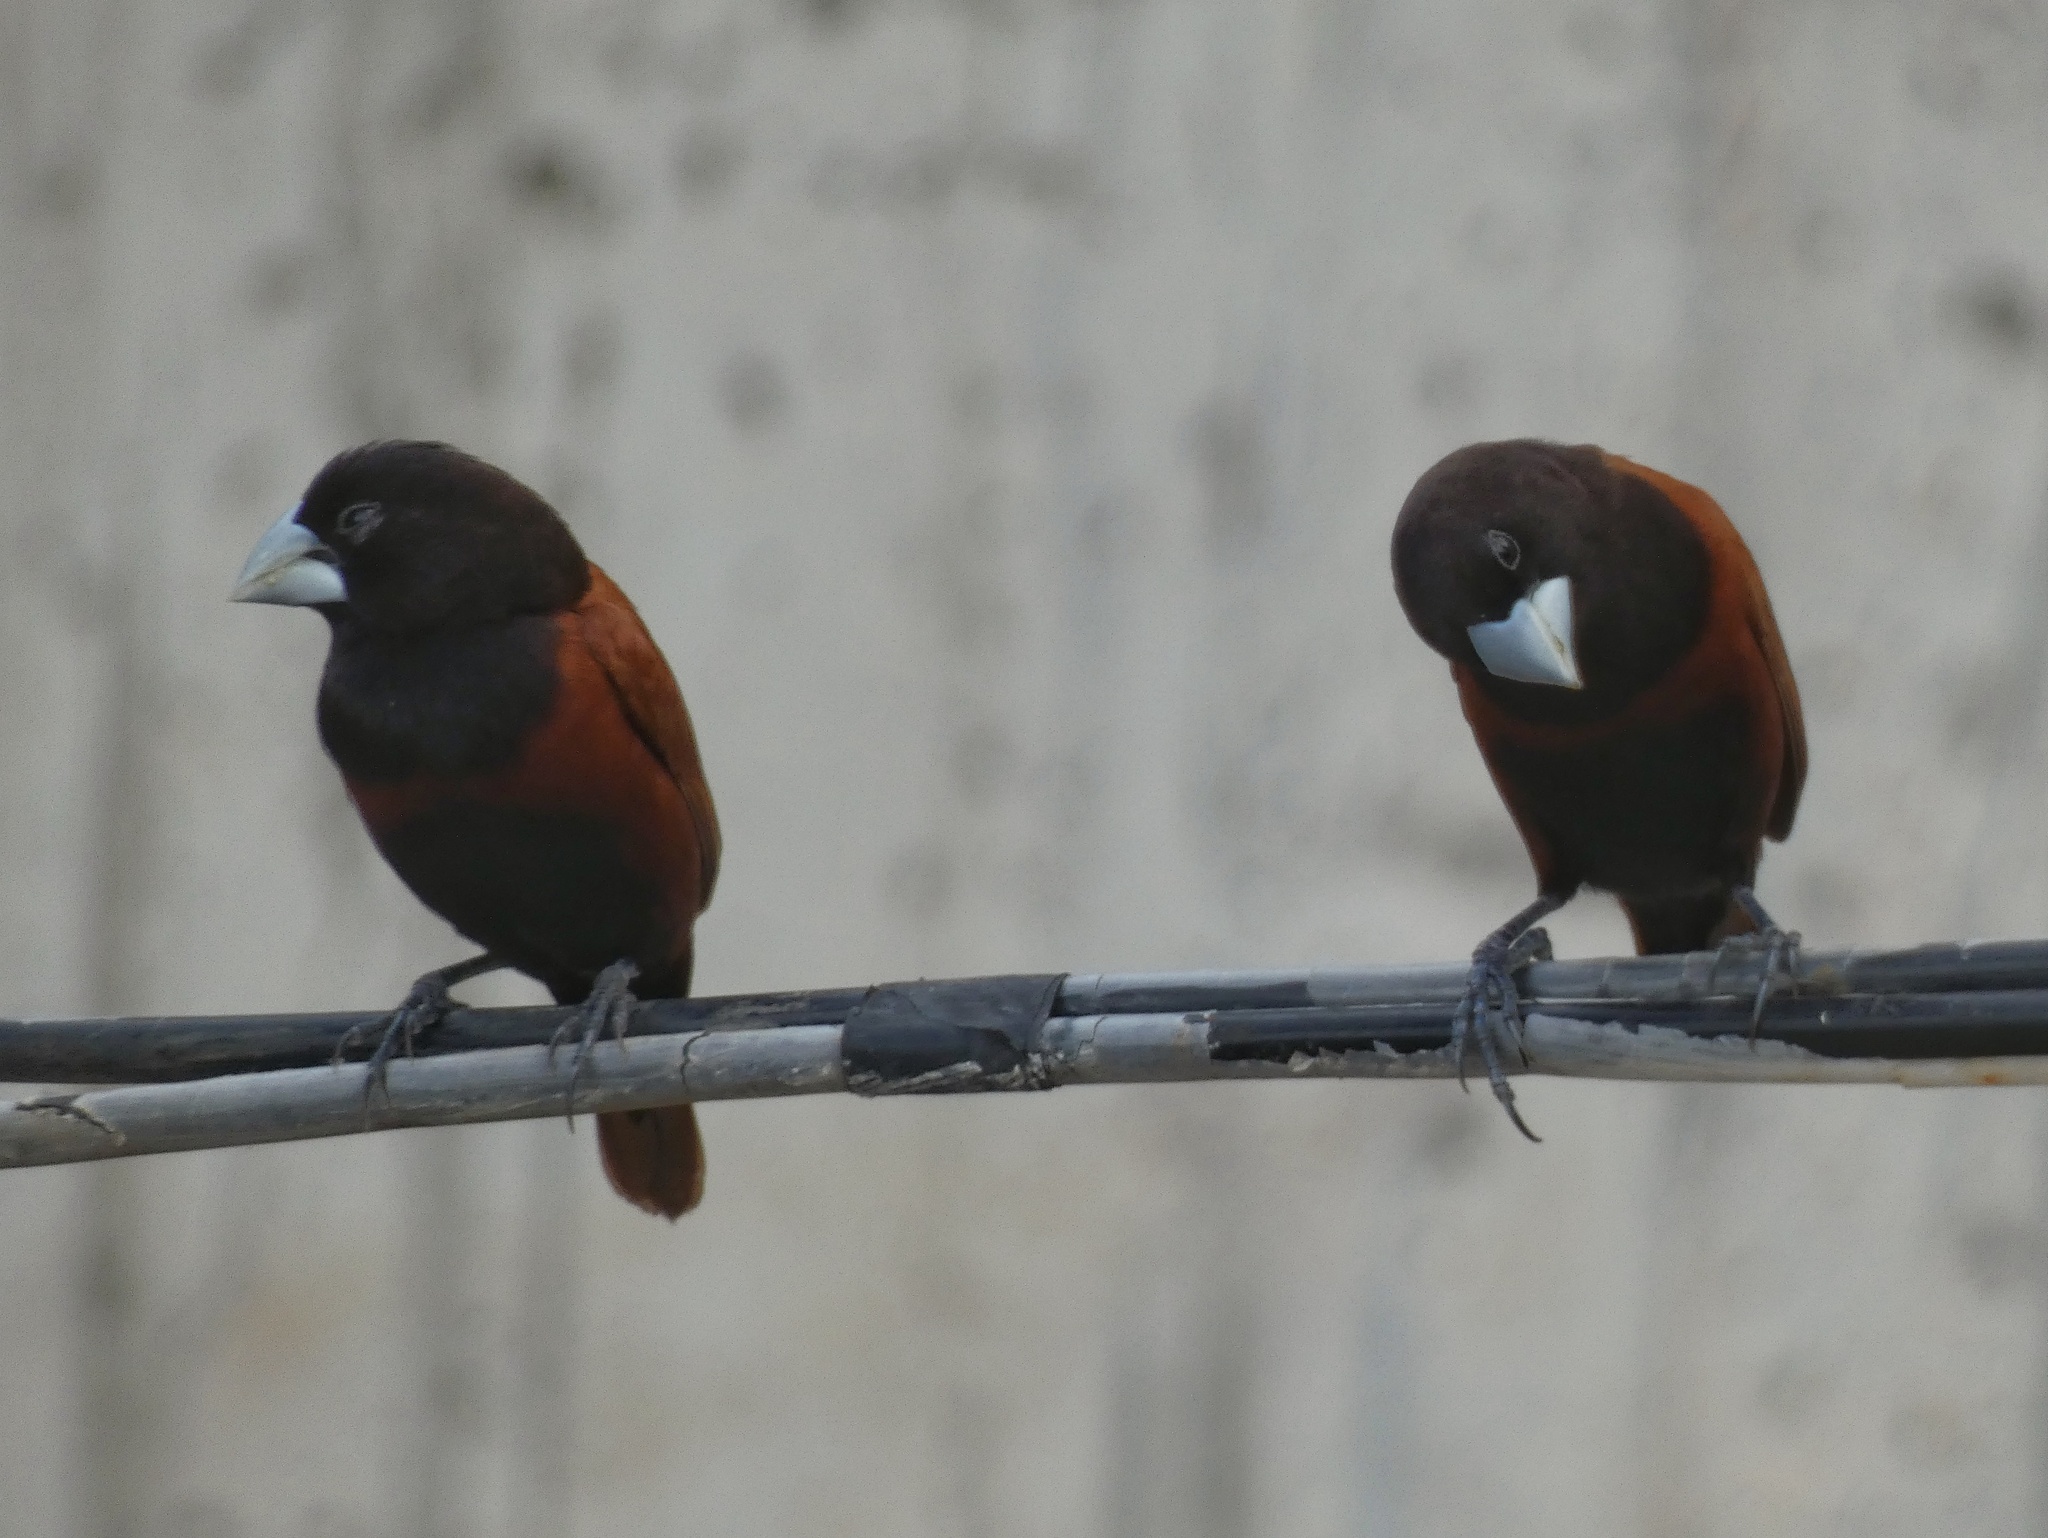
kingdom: Animalia
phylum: Chordata
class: Aves
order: Passeriformes
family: Estrildidae
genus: Lonchura
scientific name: Lonchura atricapilla
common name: Chestnut munia
